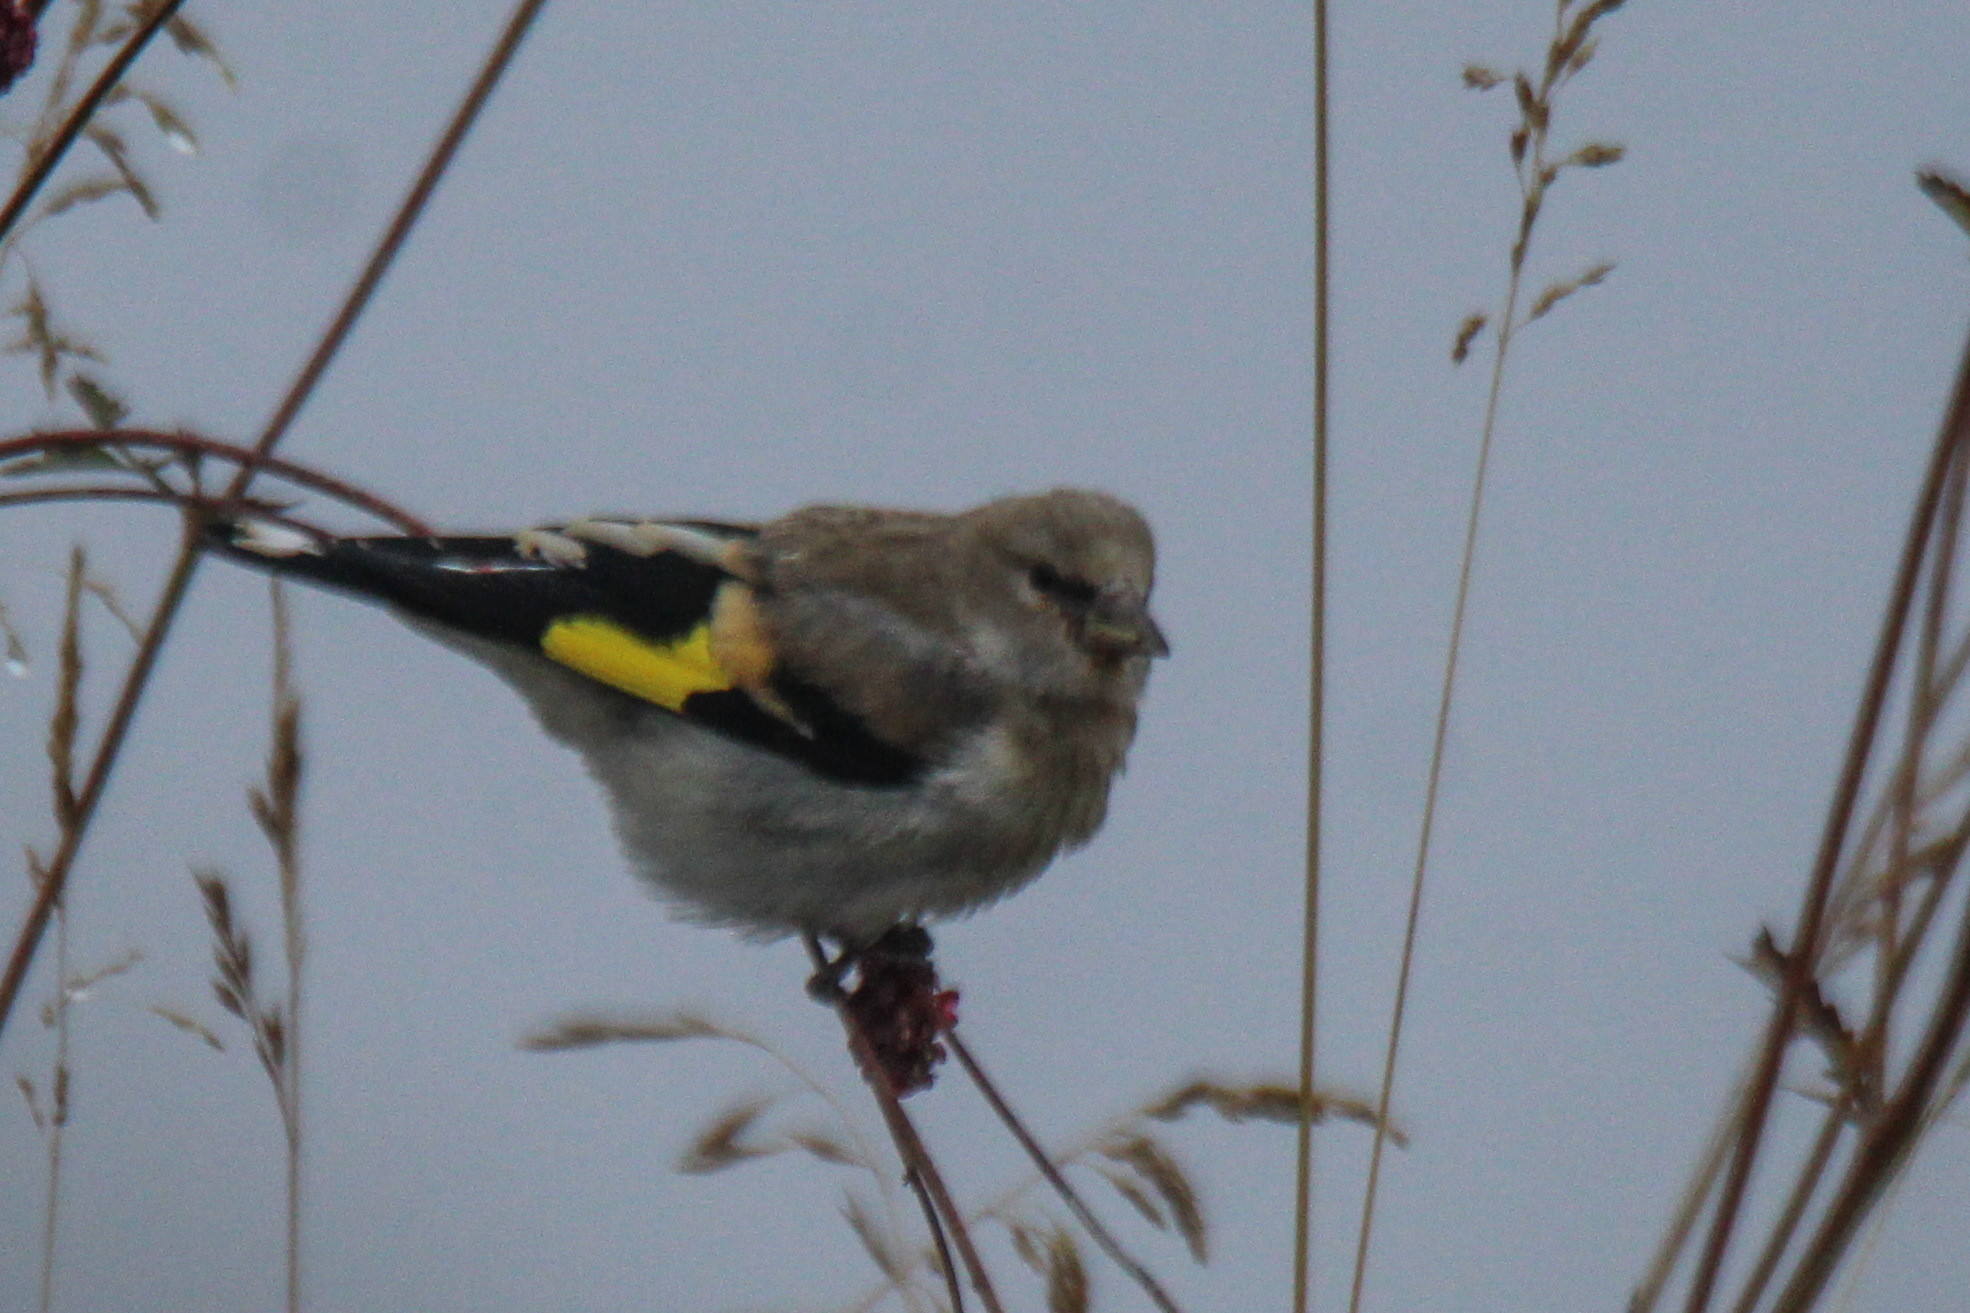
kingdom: Animalia
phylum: Chordata
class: Aves
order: Passeriformes
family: Fringillidae
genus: Carduelis
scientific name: Carduelis carduelis
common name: European goldfinch
